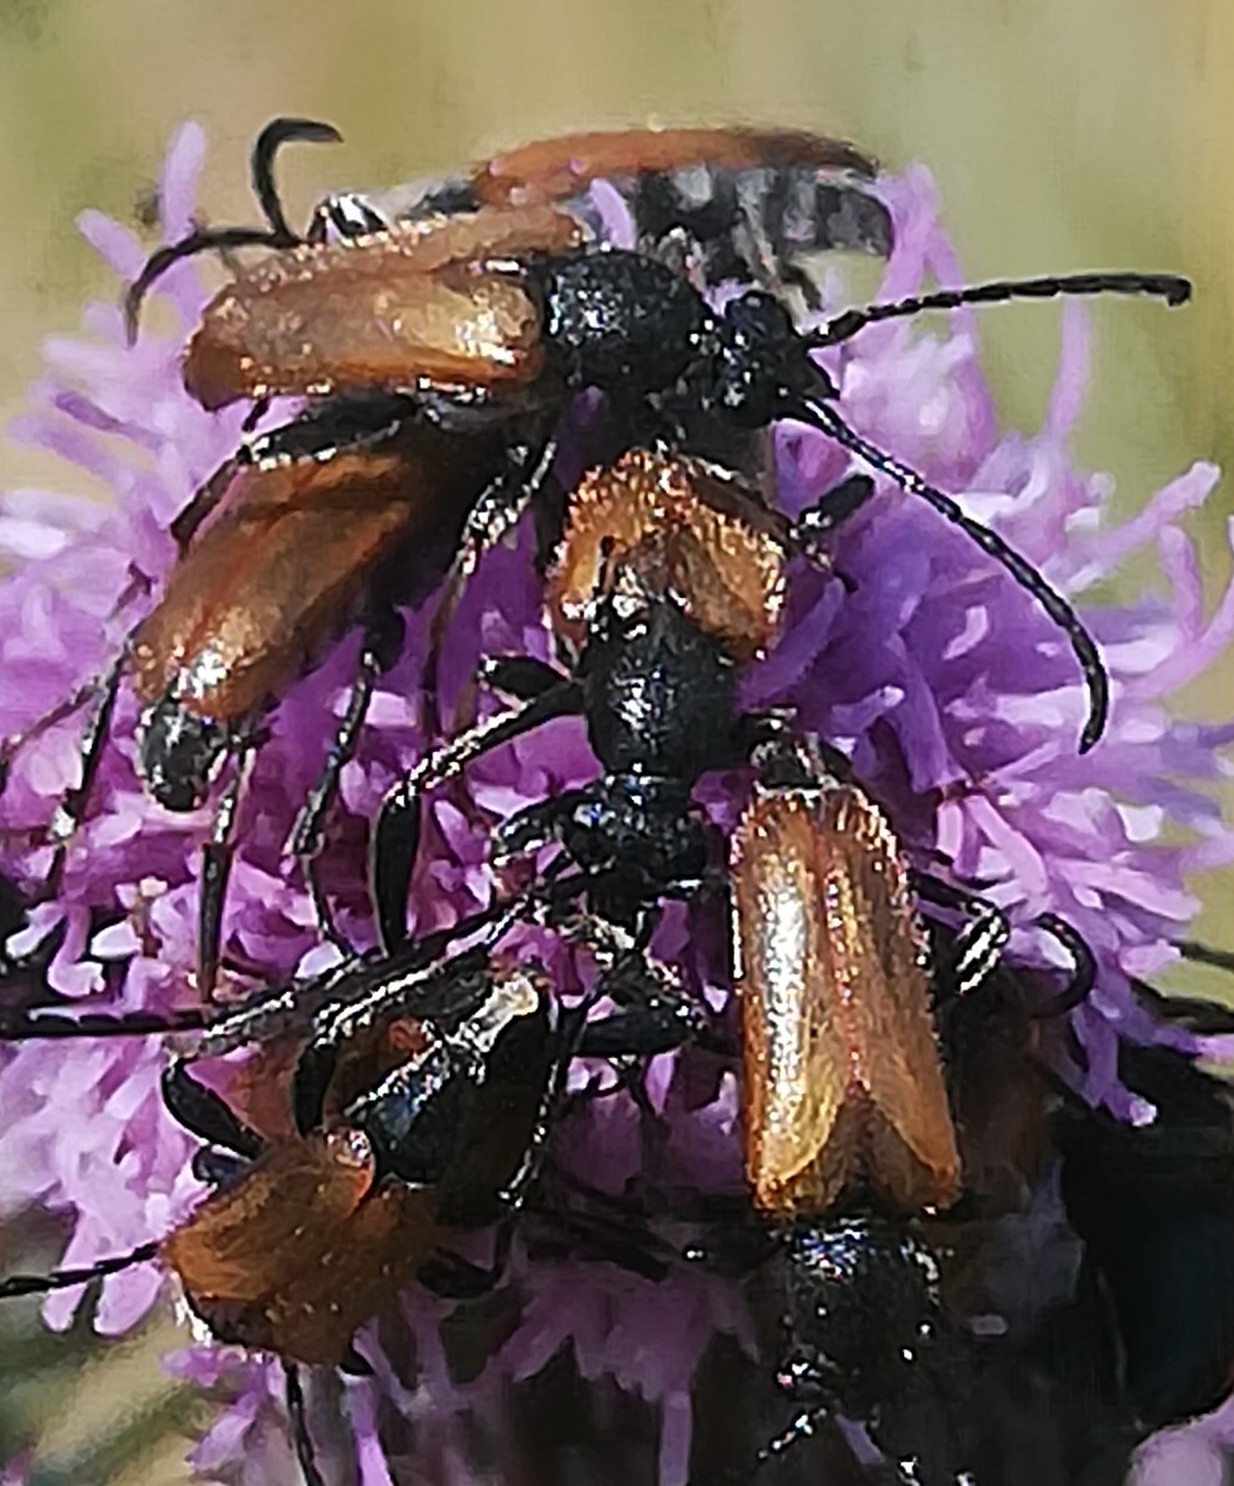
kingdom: Animalia
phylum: Arthropoda
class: Insecta
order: Coleoptera
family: Cerambycidae
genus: Pseudovadonia
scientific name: Pseudovadonia livida
